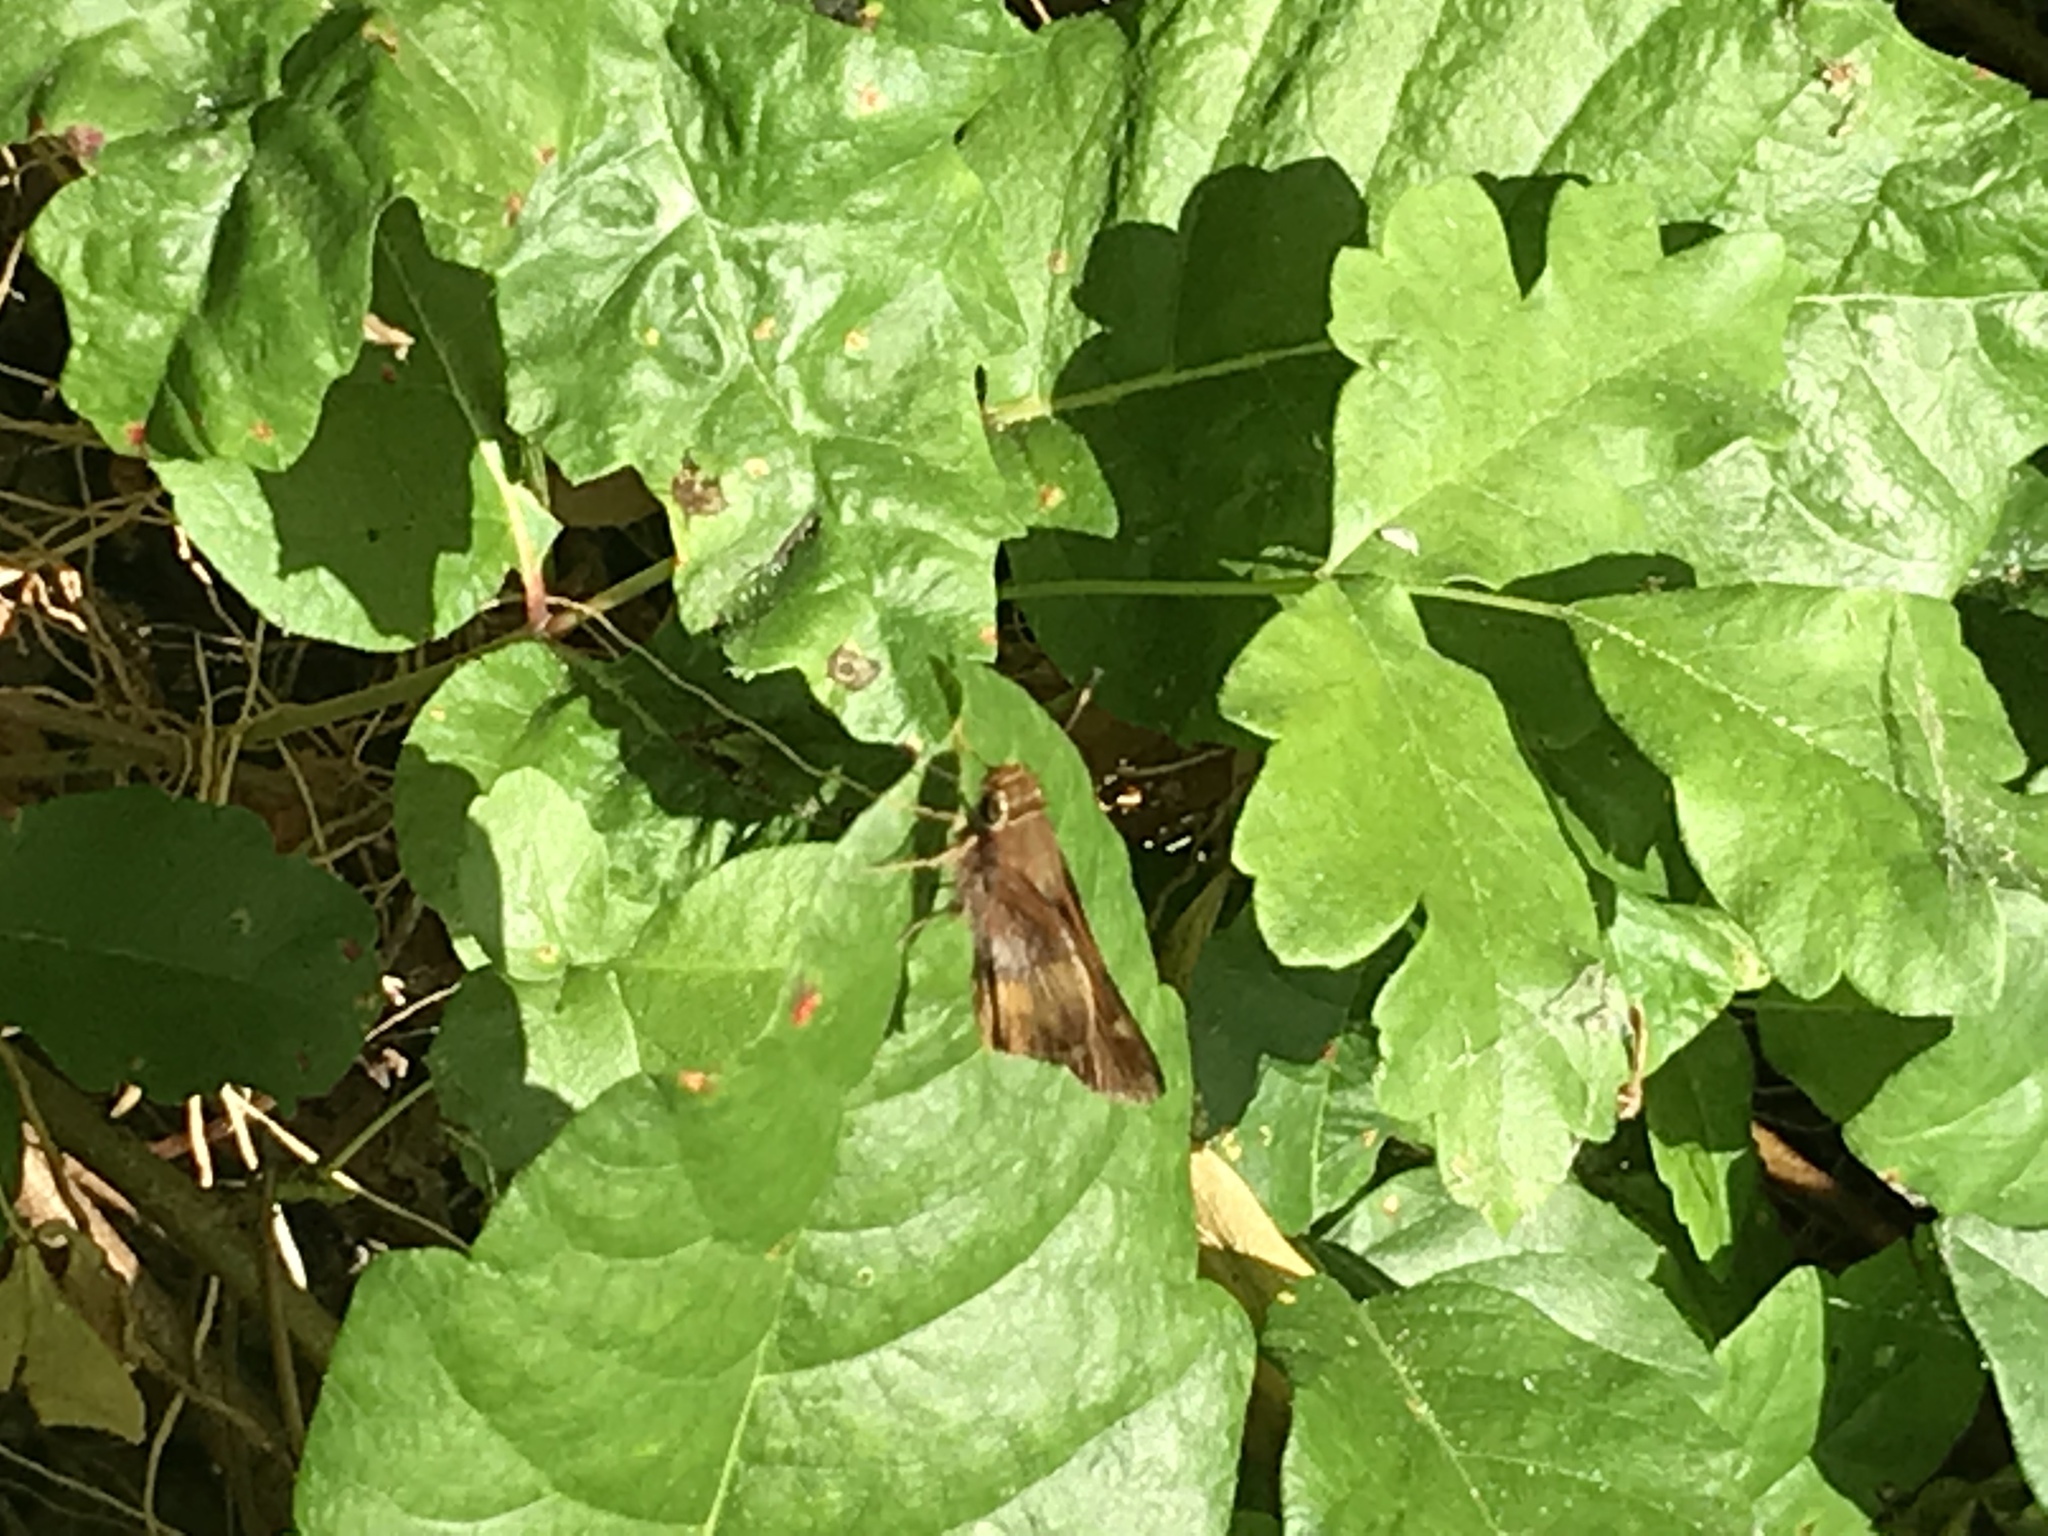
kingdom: Animalia
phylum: Arthropoda
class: Insecta
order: Lepidoptera
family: Hesperiidae
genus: Lon
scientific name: Lon melane
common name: Umber skipper
